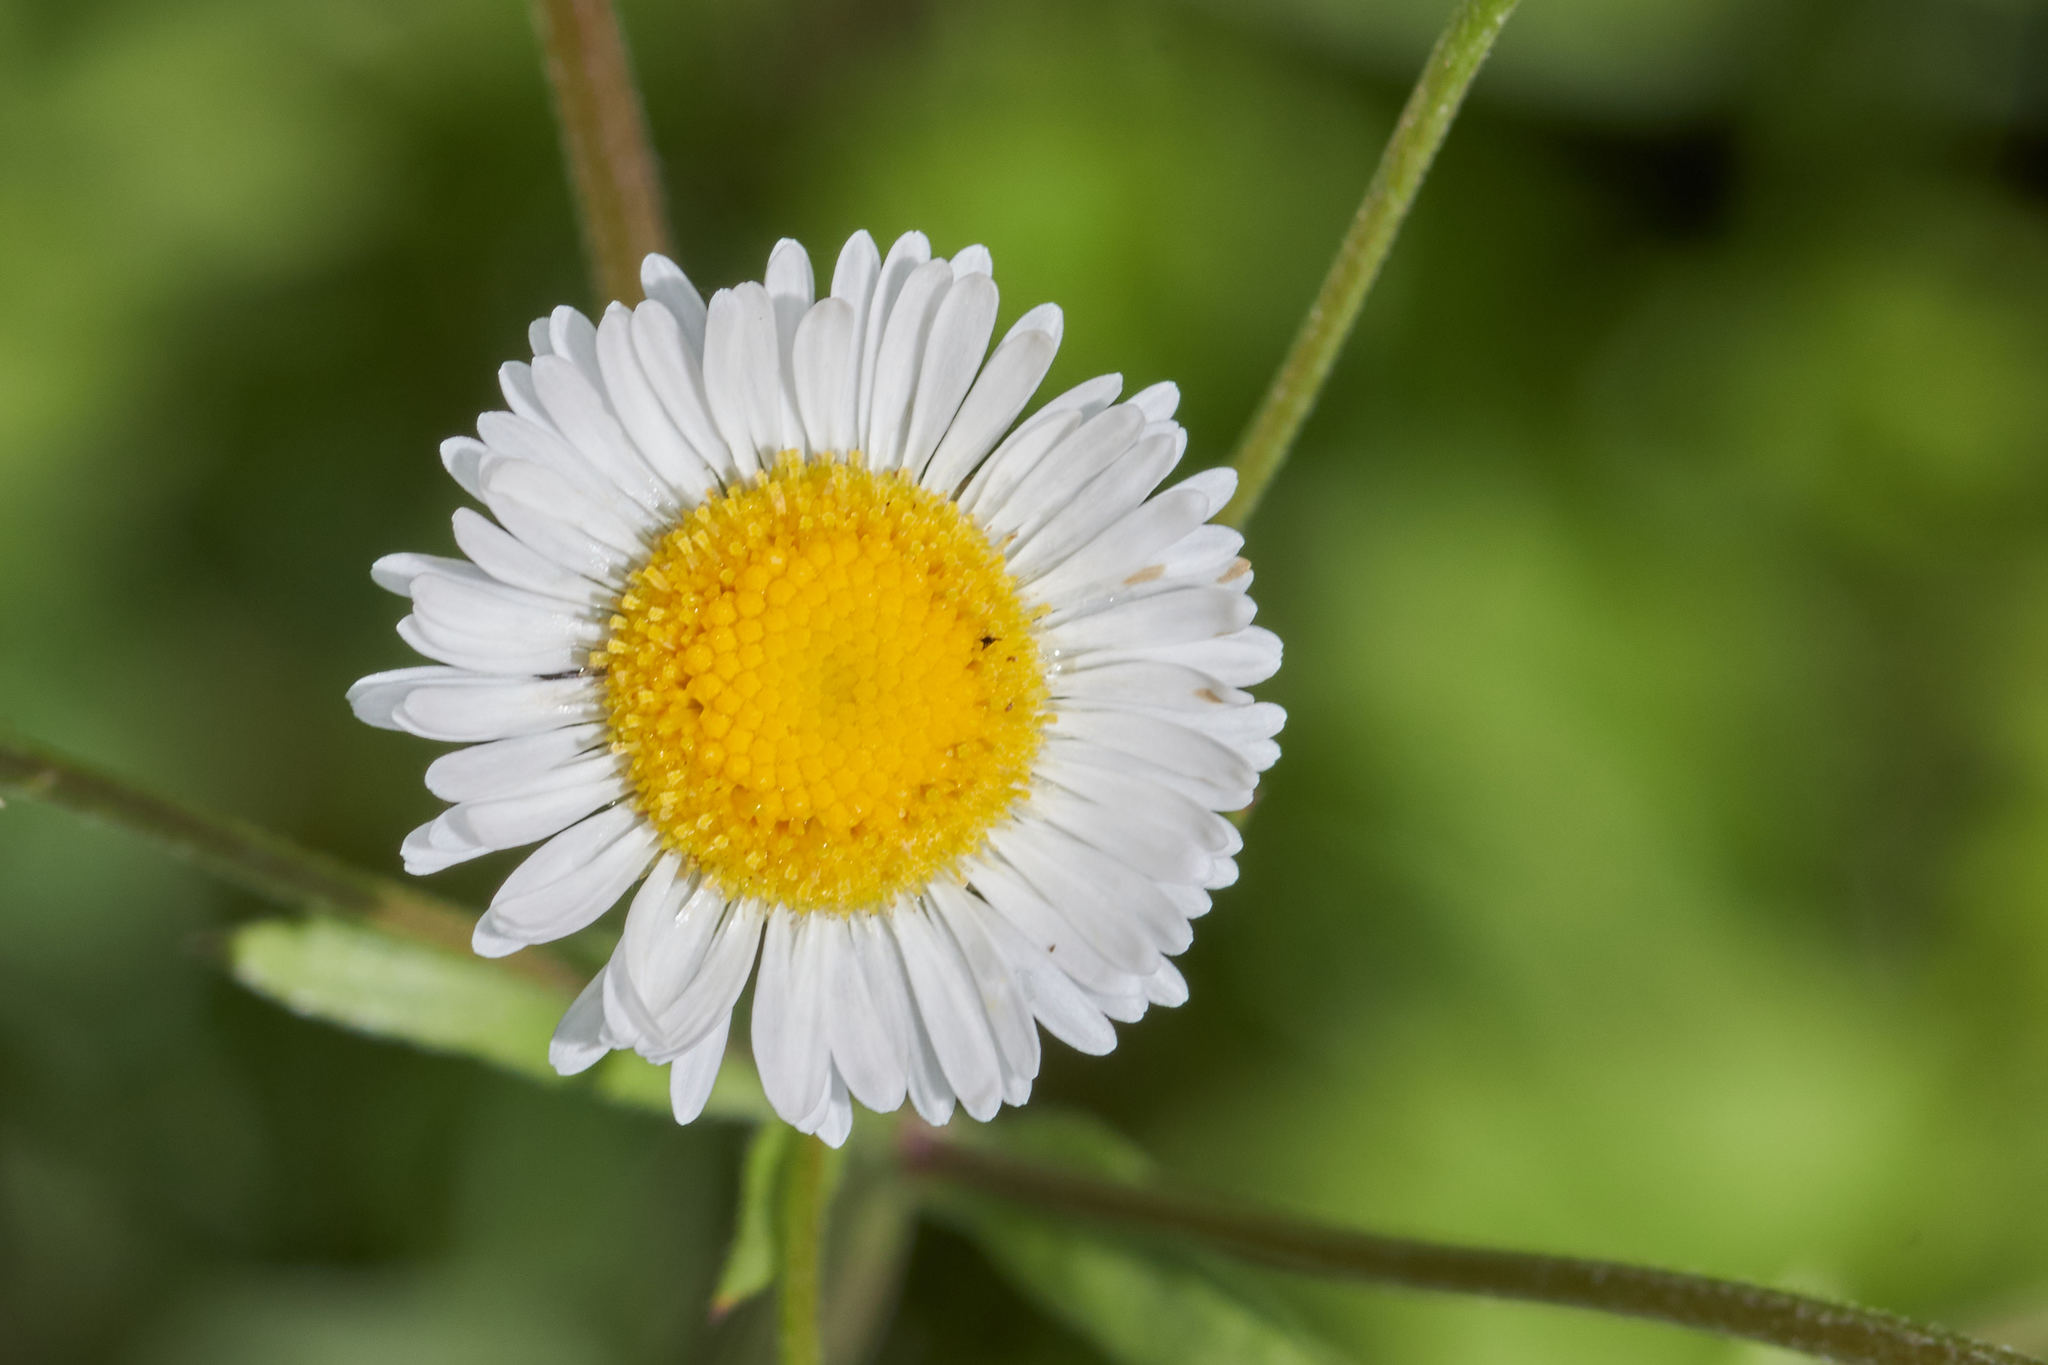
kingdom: Plantae
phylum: Tracheophyta
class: Magnoliopsida
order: Asterales
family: Asteraceae
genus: Erigeron
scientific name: Erigeron strigosus
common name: Common eastern fleabane
